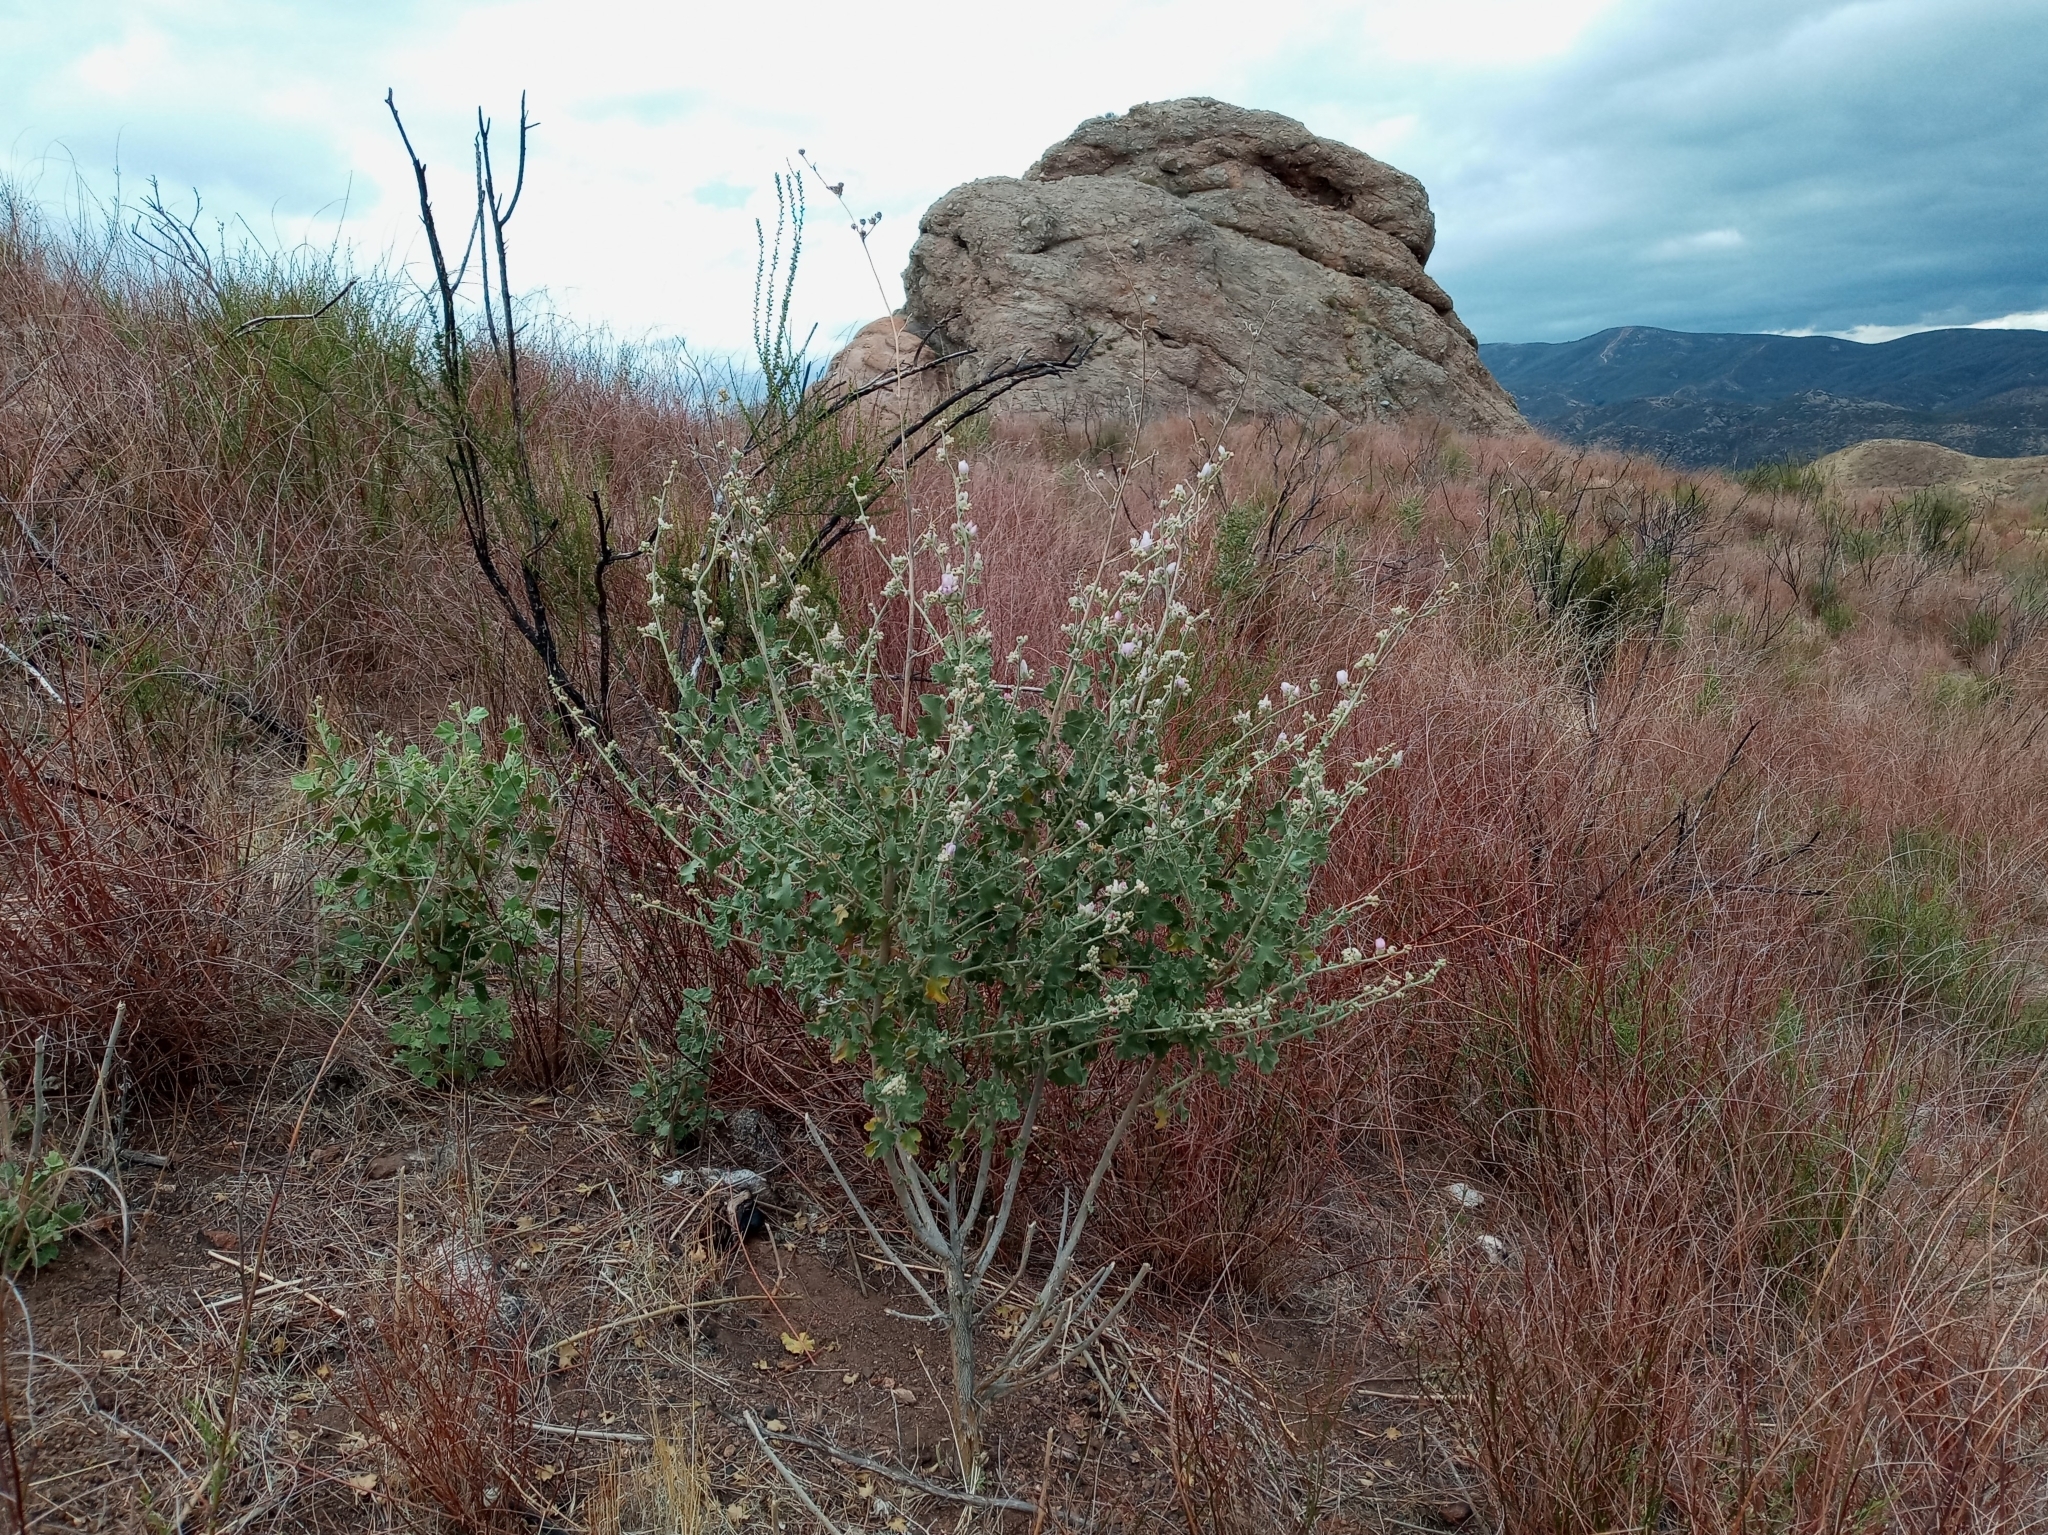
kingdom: Plantae
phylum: Tracheophyta
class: Magnoliopsida
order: Malvales
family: Malvaceae
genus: Malacothamnus
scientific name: Malacothamnus fremontii
